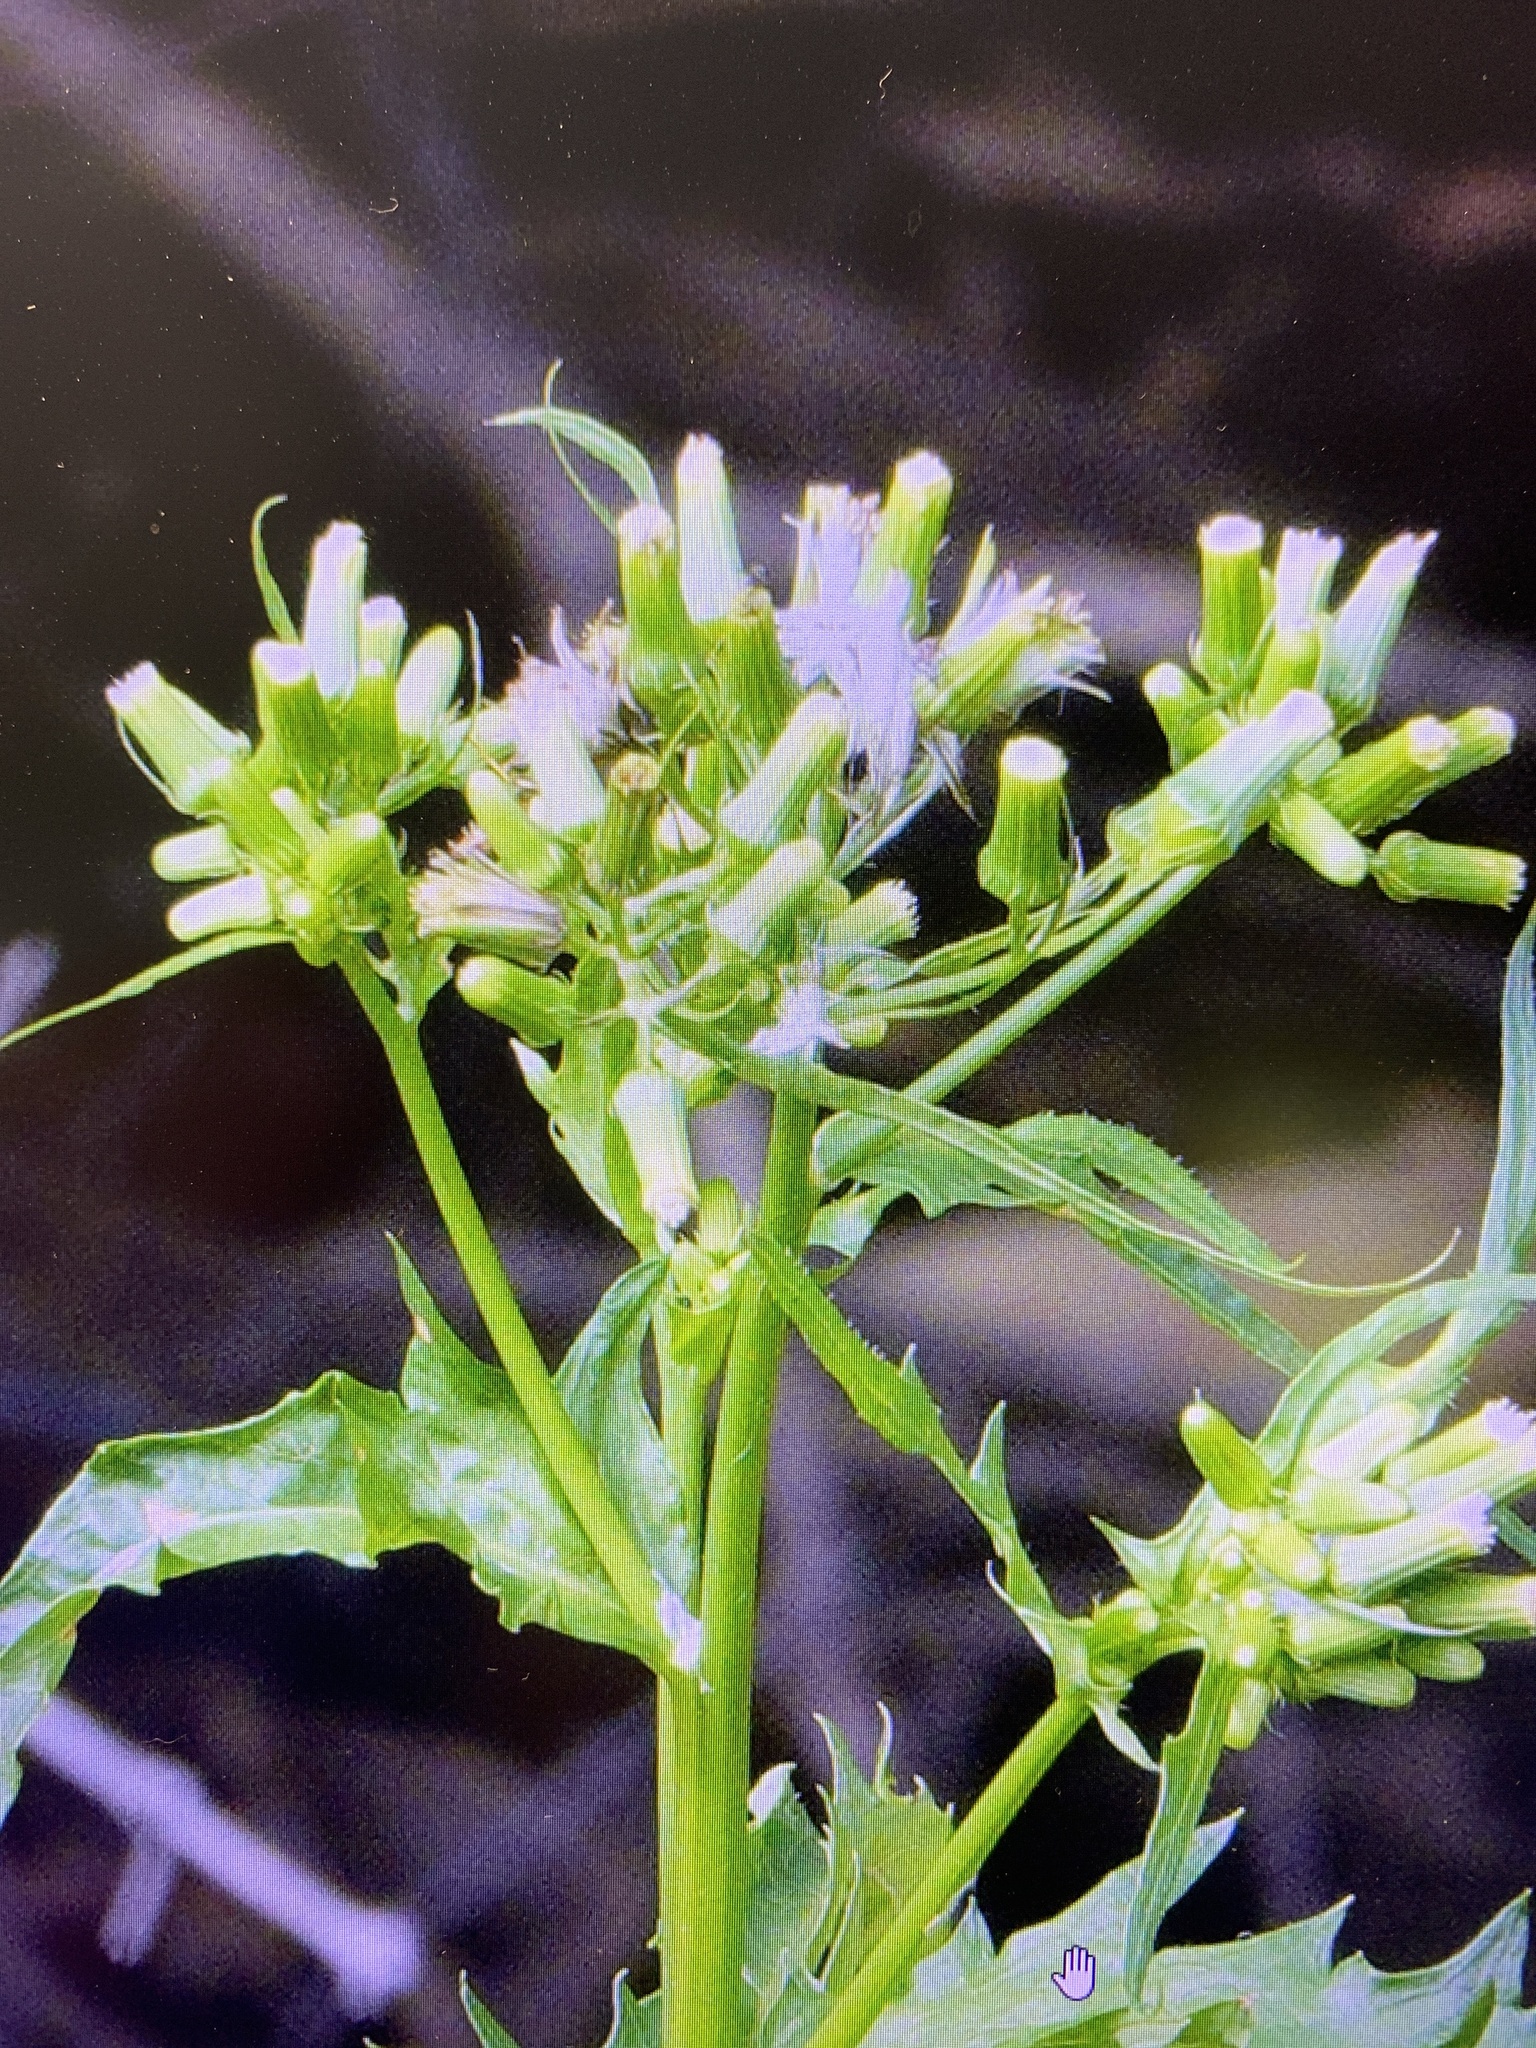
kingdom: Plantae
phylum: Tracheophyta
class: Magnoliopsida
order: Asterales
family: Asteraceae
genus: Erechtites
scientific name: Erechtites hieraciifolius
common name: American burnweed
